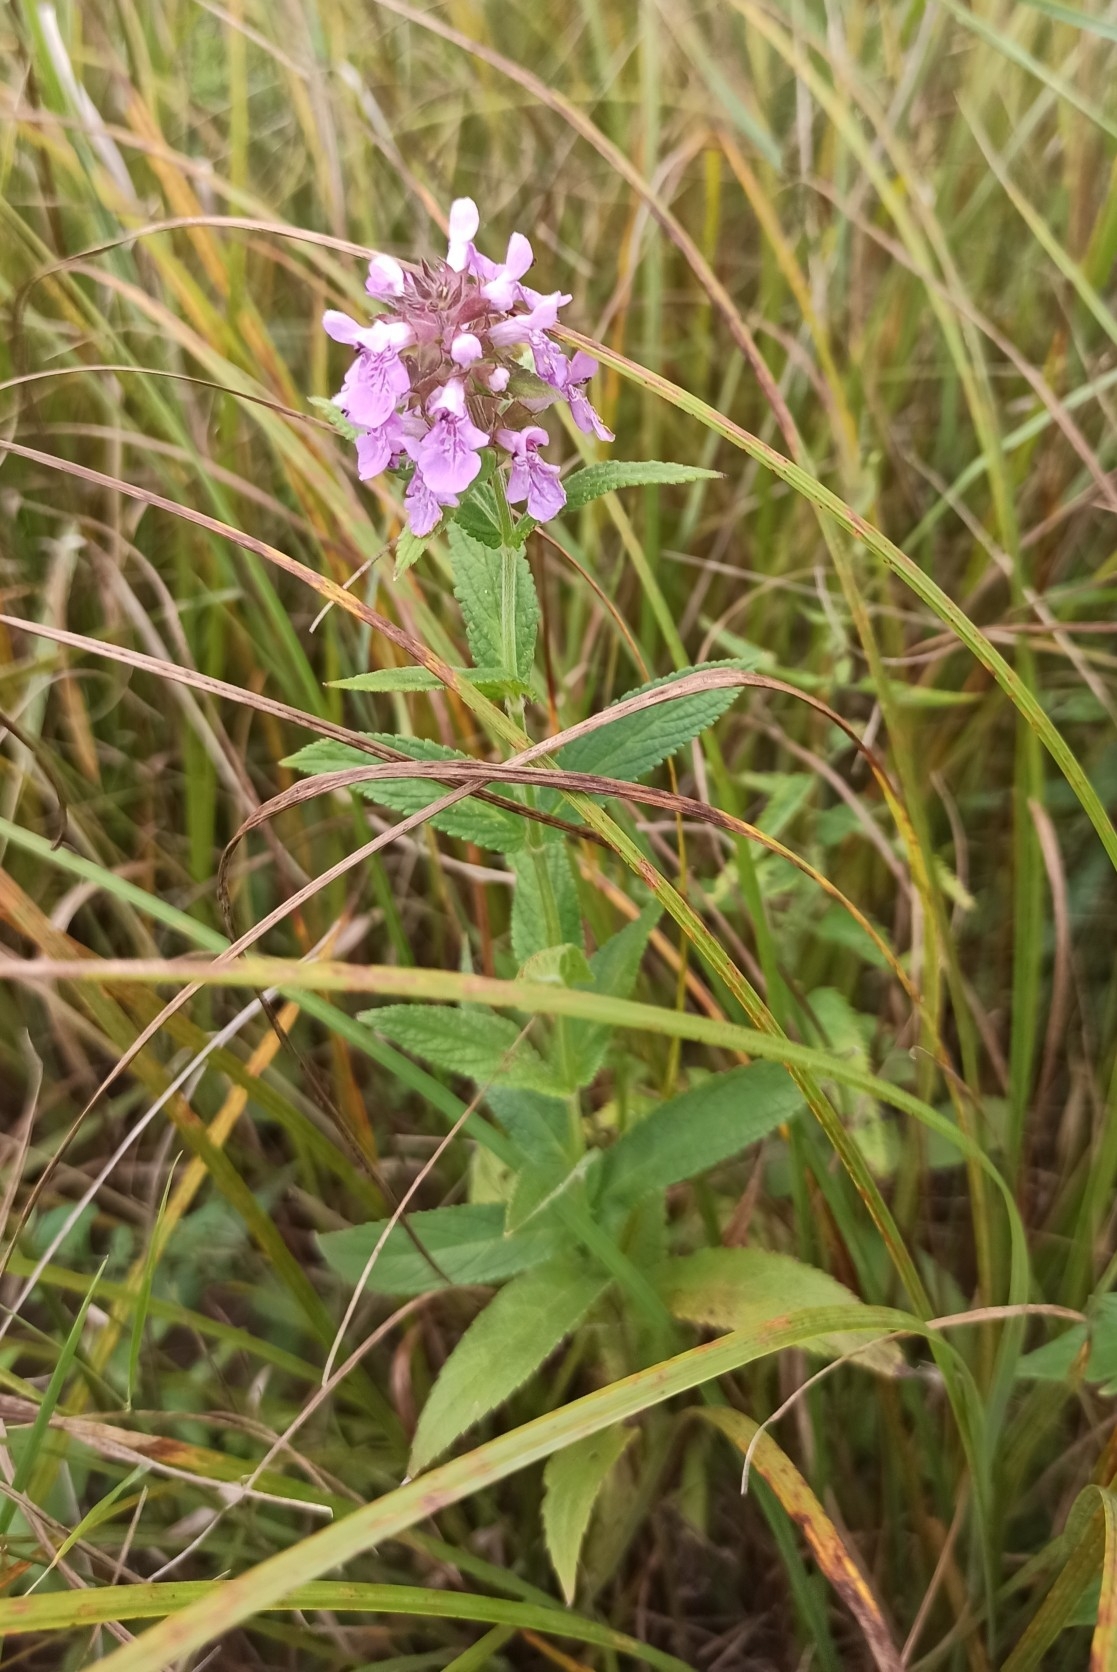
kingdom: Plantae
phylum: Tracheophyta
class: Magnoliopsida
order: Lamiales
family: Lamiaceae
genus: Stachys
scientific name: Stachys palustris
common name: Marsh woundwort
